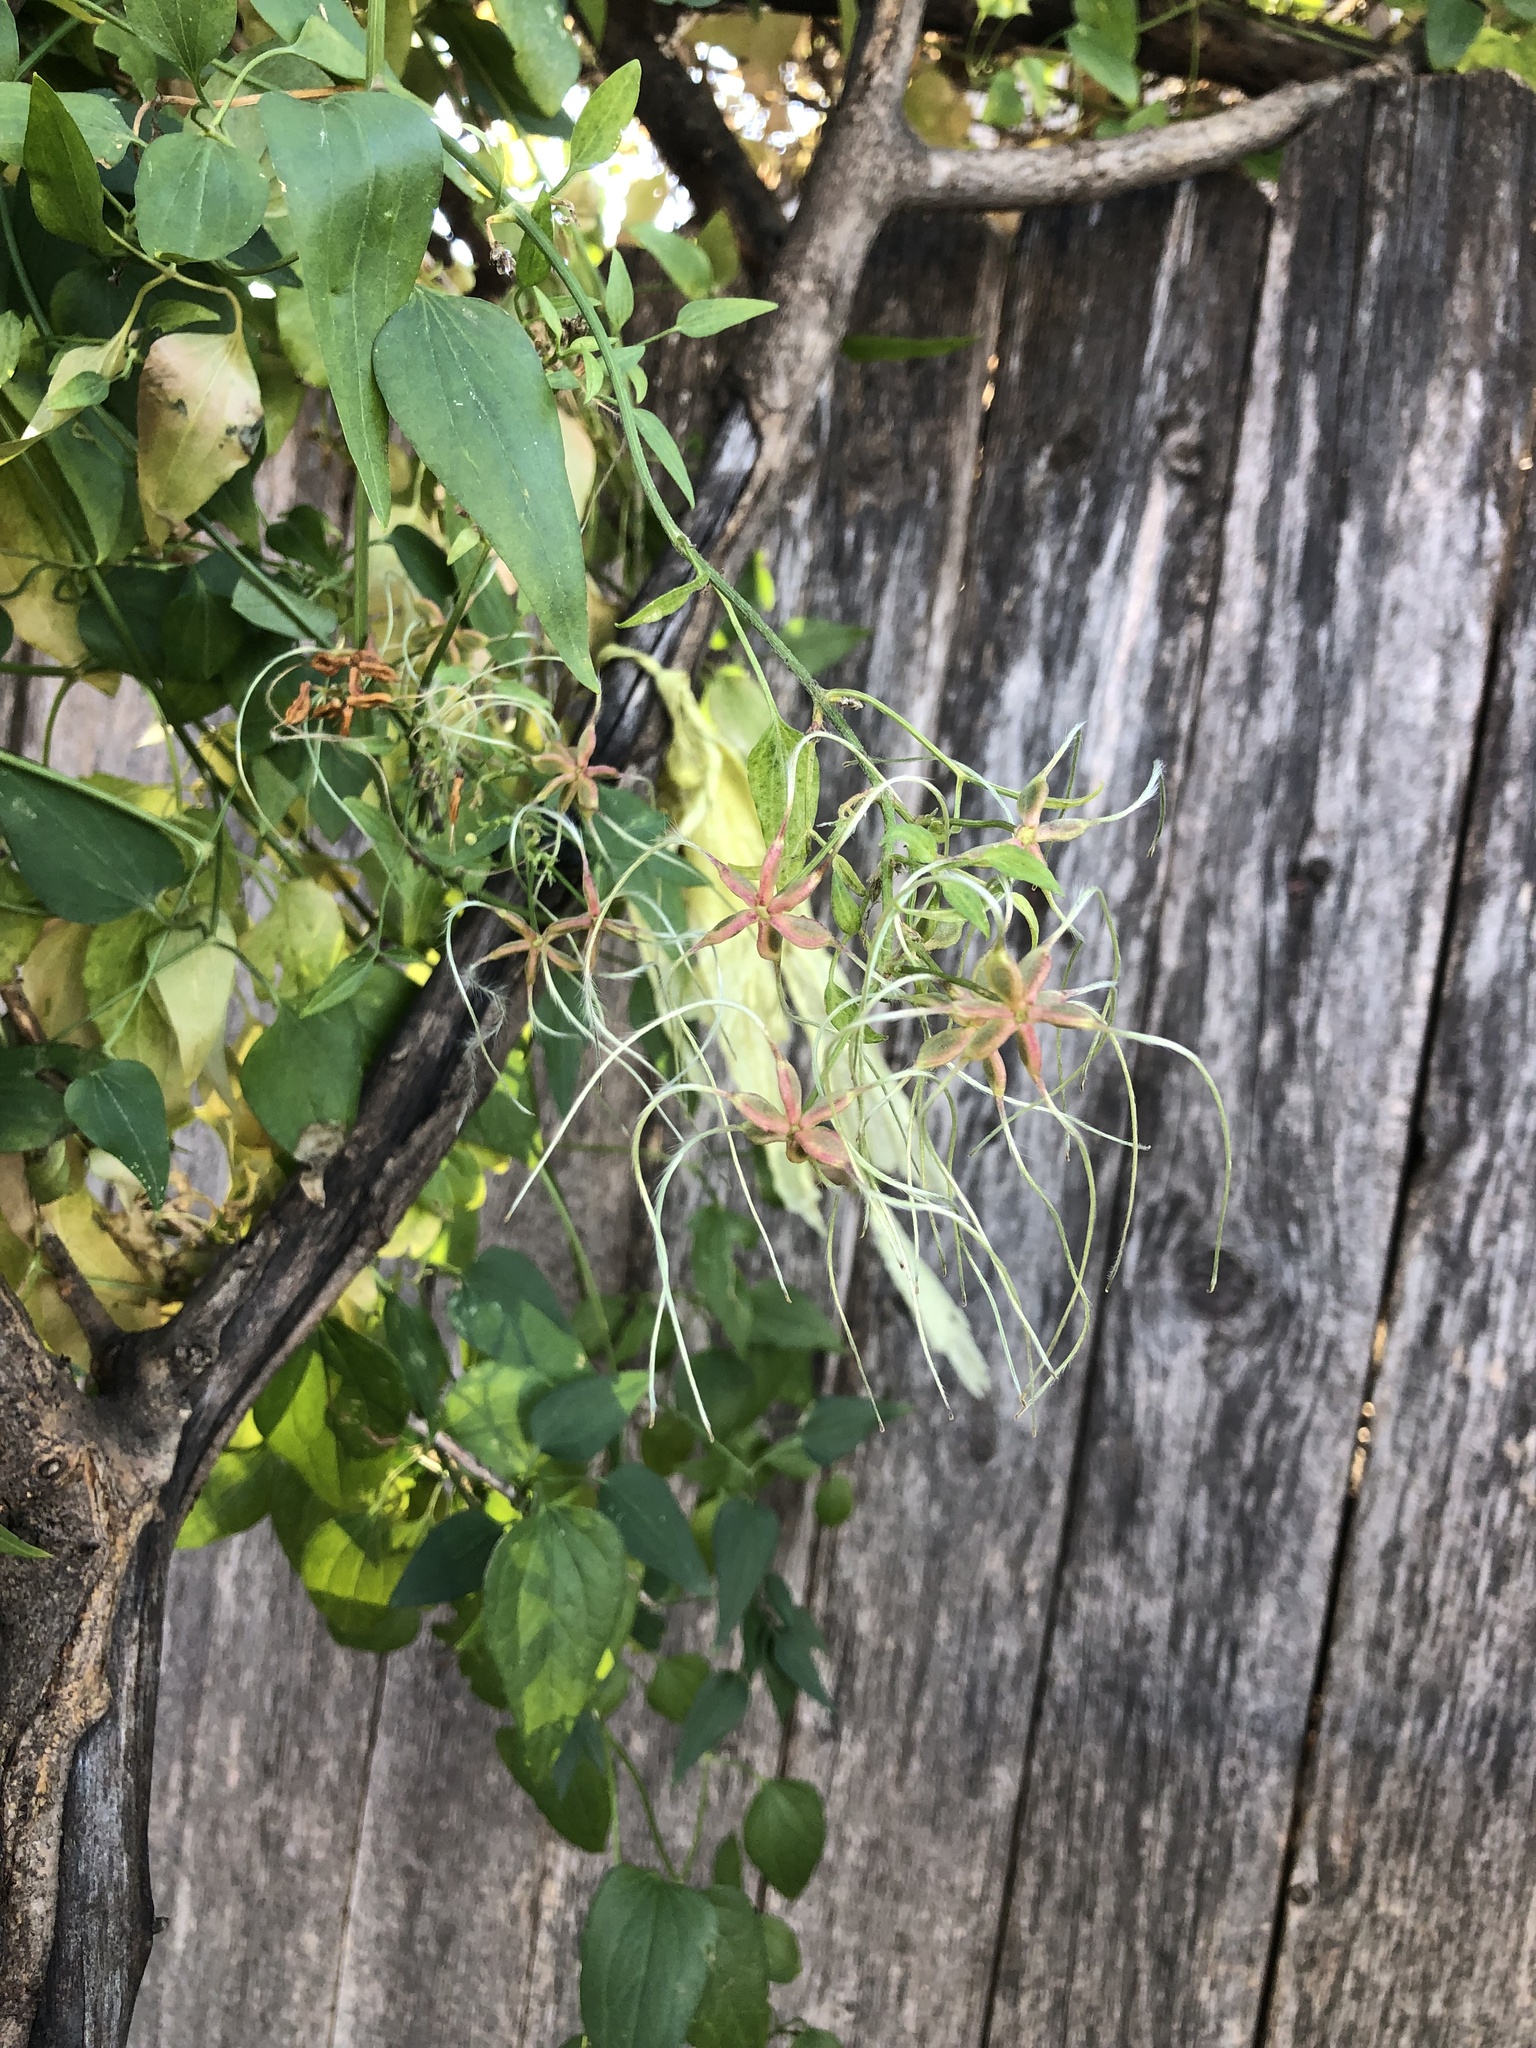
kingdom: Plantae
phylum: Tracheophyta
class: Magnoliopsida
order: Ranunculales
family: Ranunculaceae
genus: Clematis
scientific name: Clematis terniflora
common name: Sweet autumn clematis
